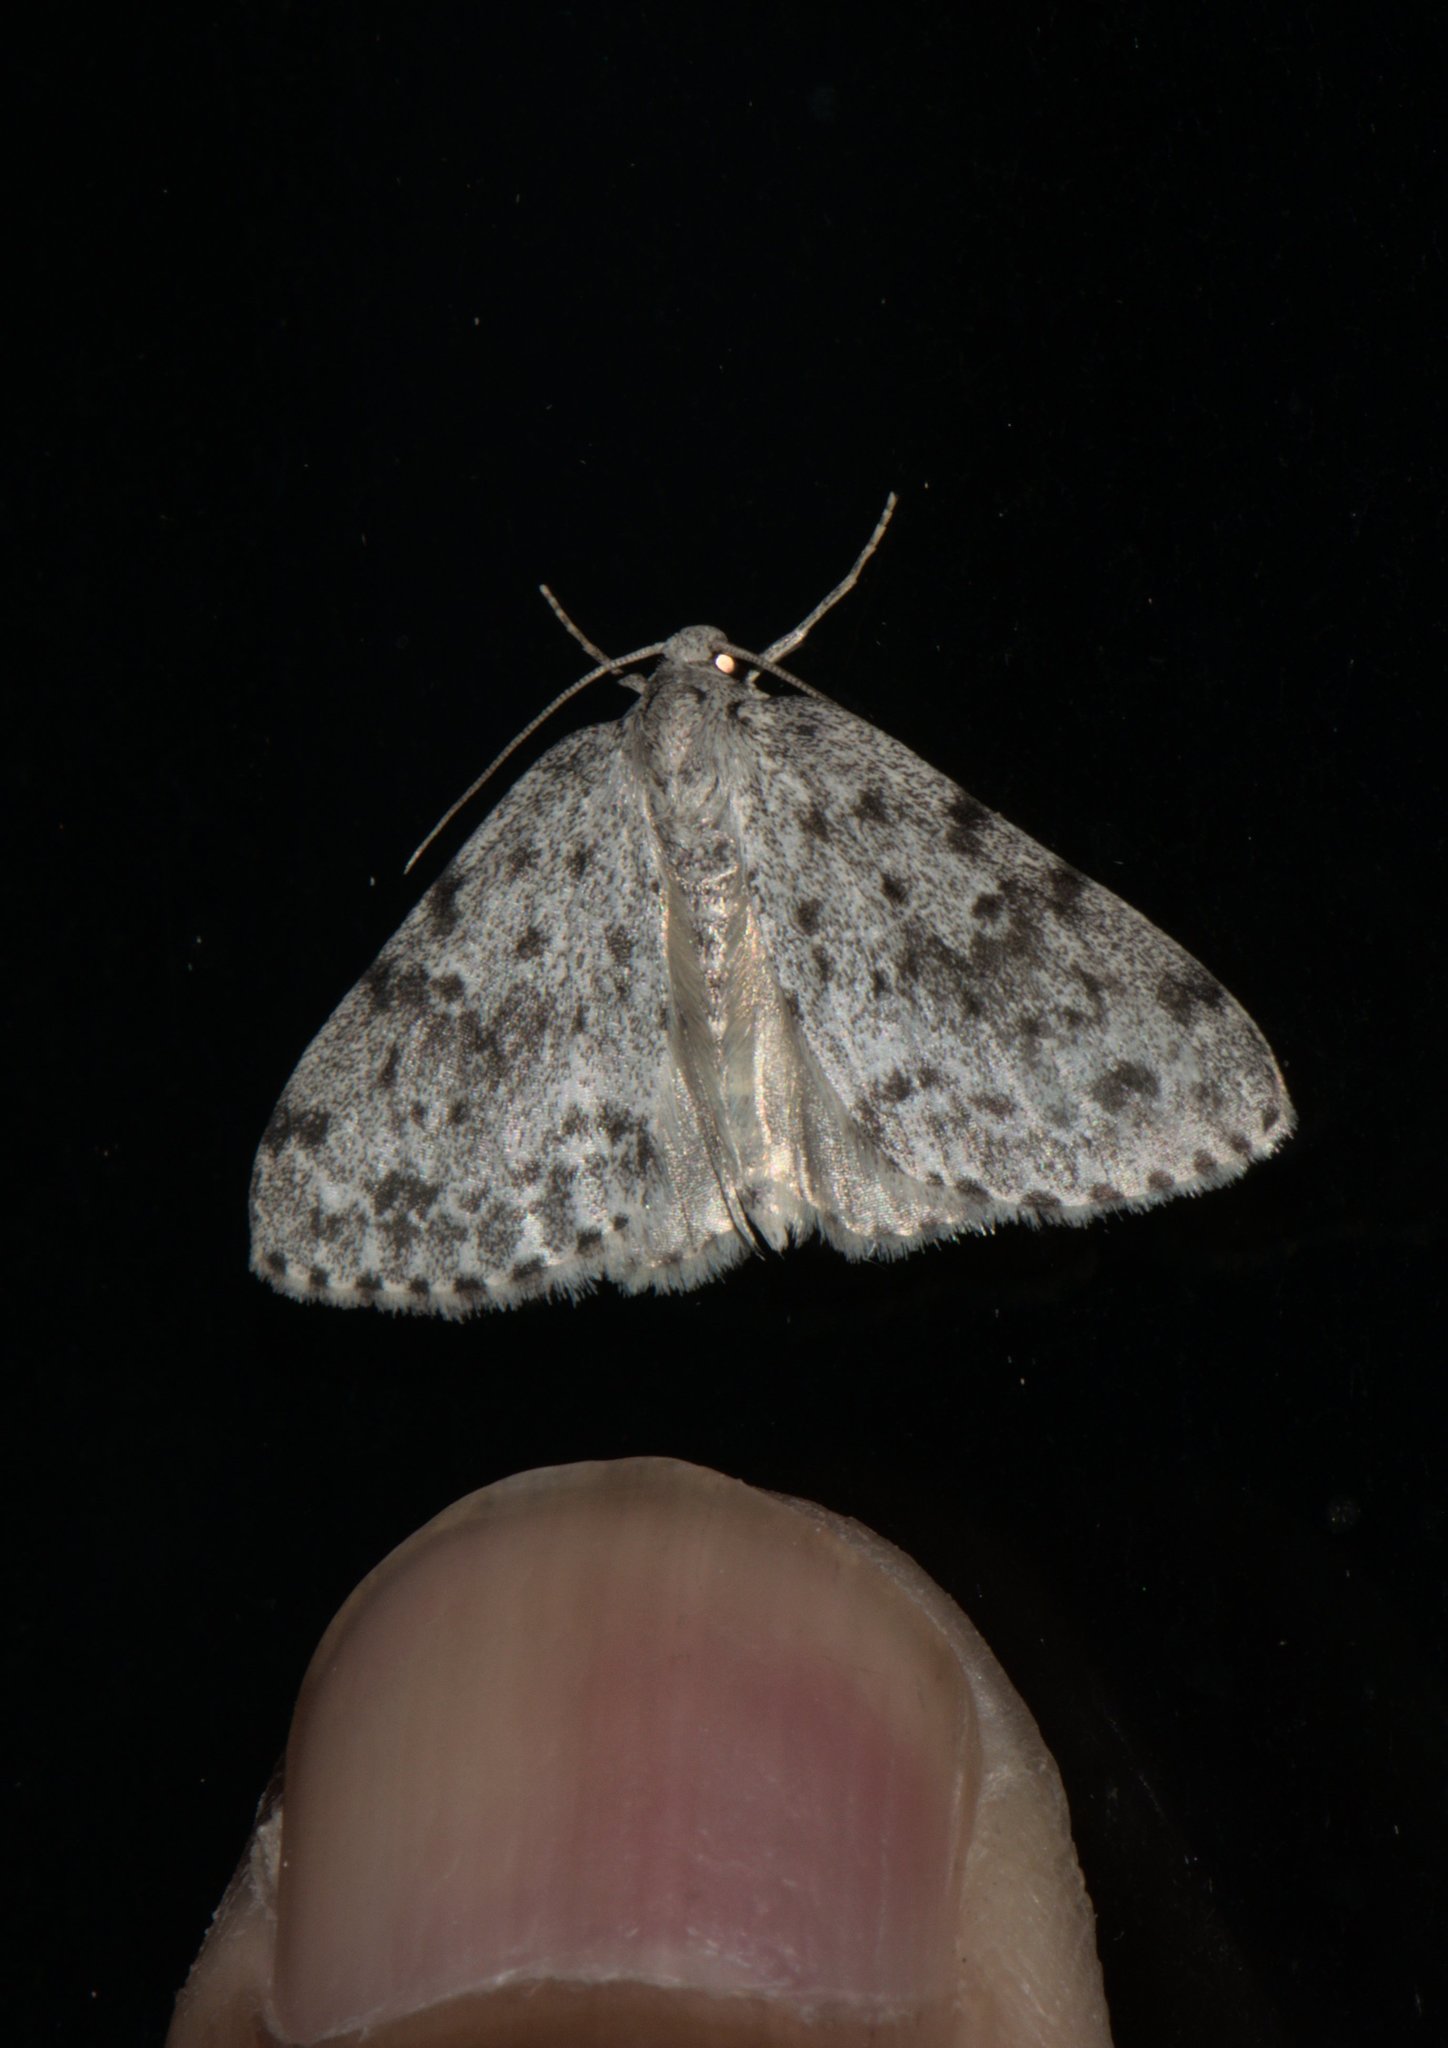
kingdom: Animalia
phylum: Arthropoda
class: Insecta
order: Lepidoptera
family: Geometridae
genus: Naxidia
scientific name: Naxidia punctata
